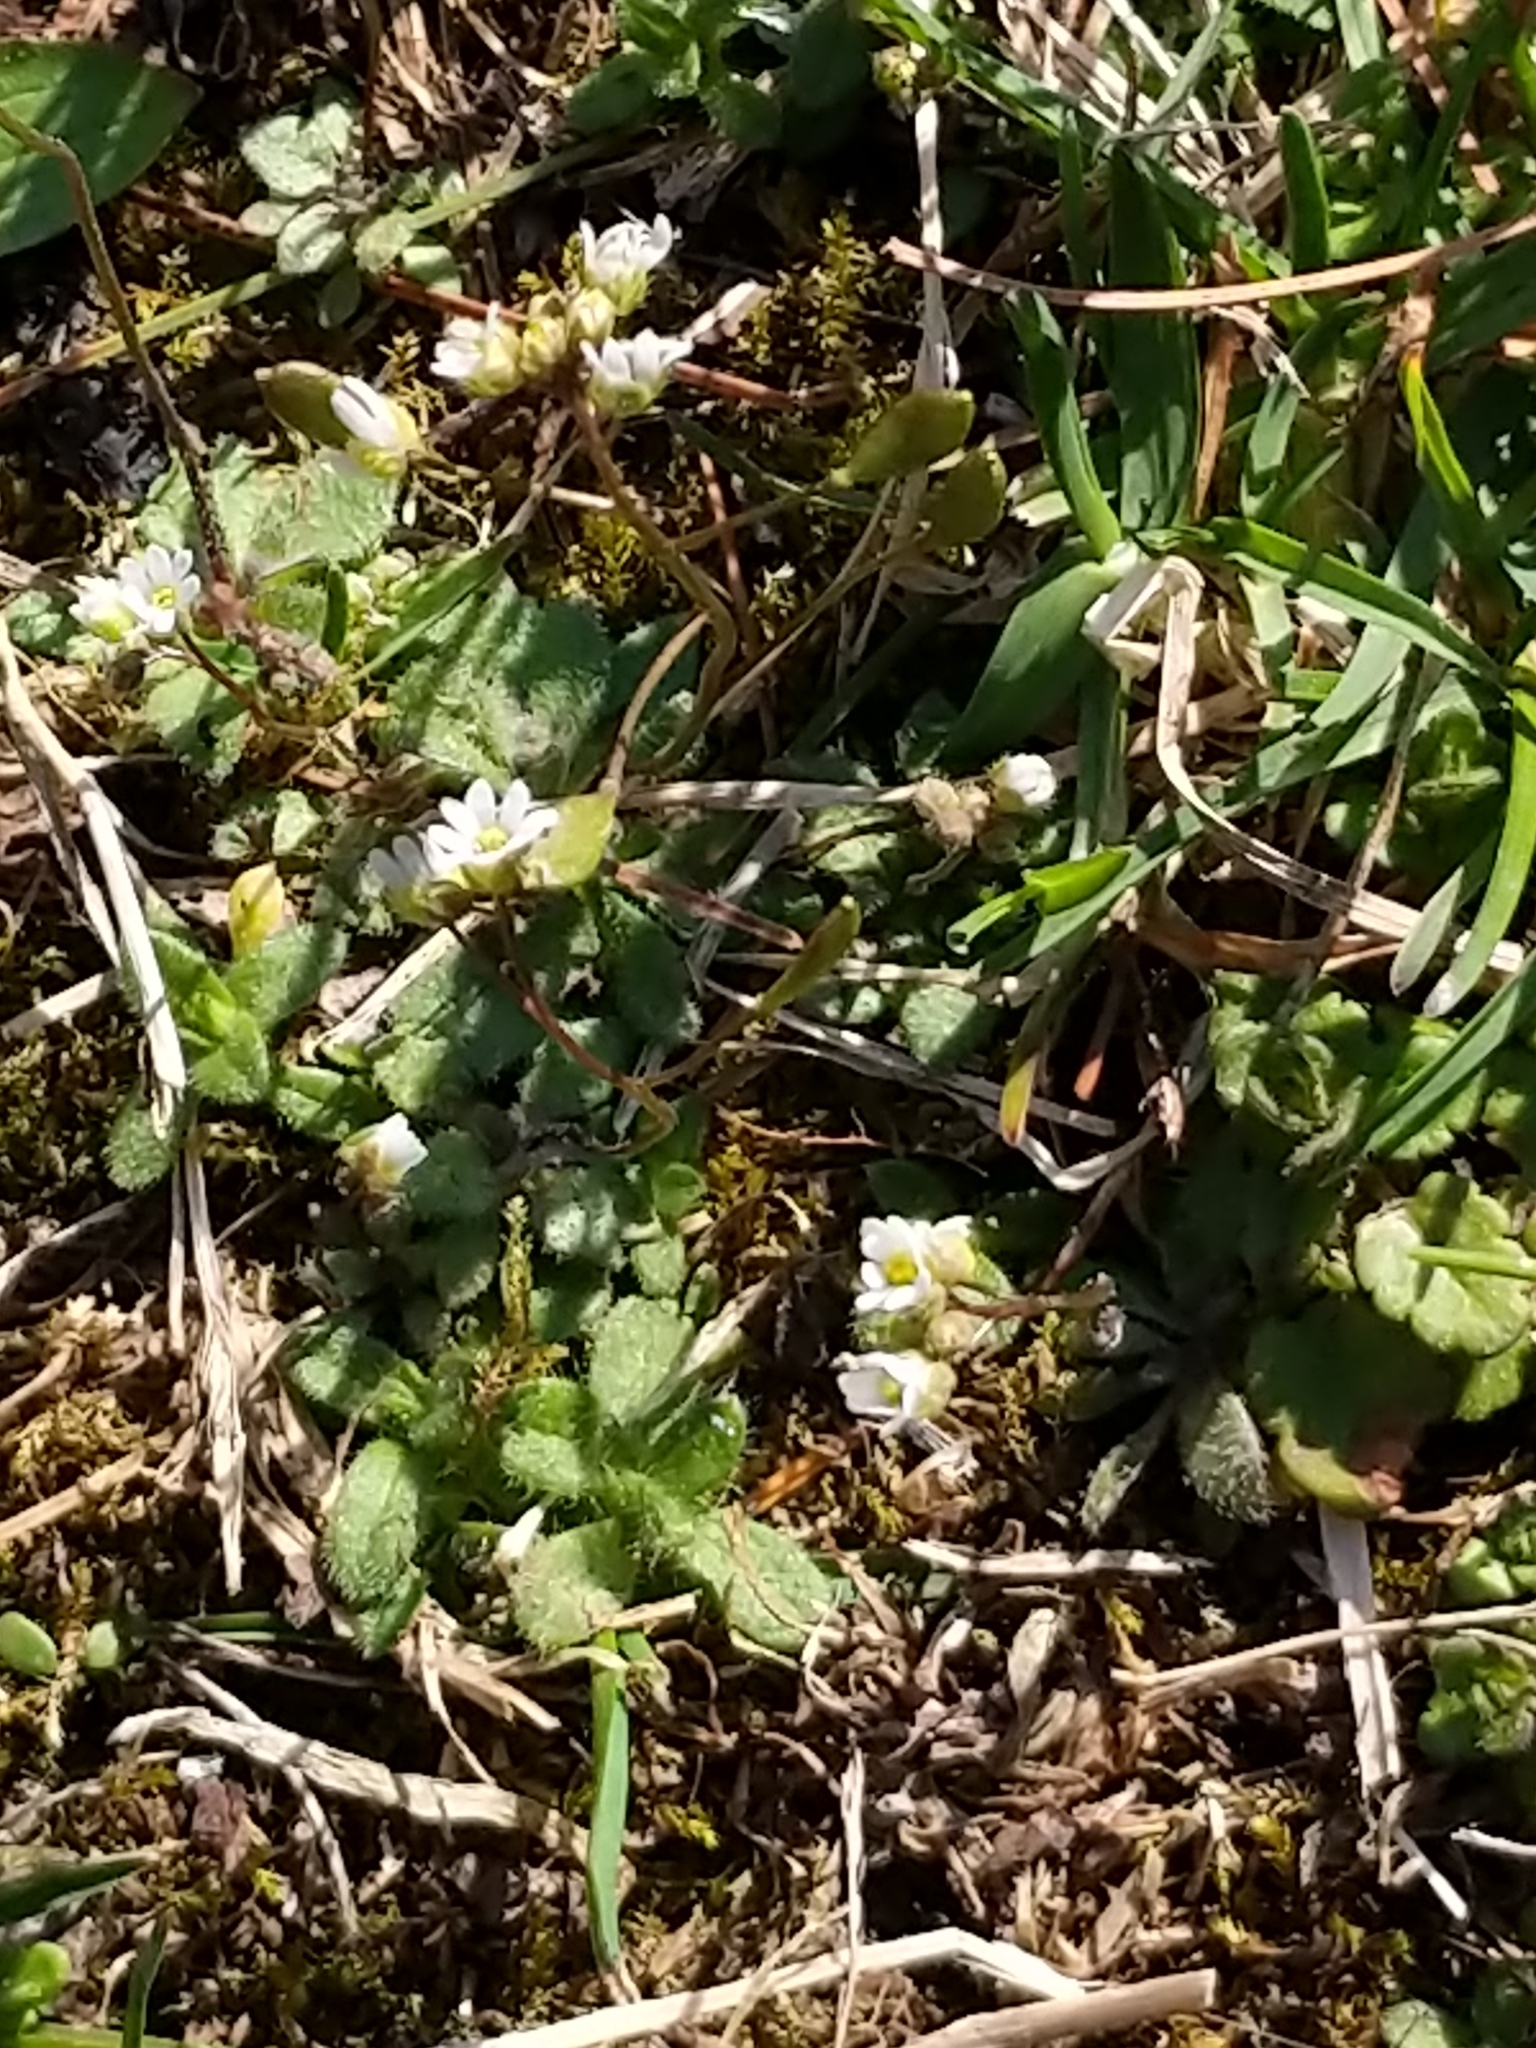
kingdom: Plantae
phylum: Tracheophyta
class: Magnoliopsida
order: Brassicales
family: Brassicaceae
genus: Draba
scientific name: Draba verna
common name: Spring draba
